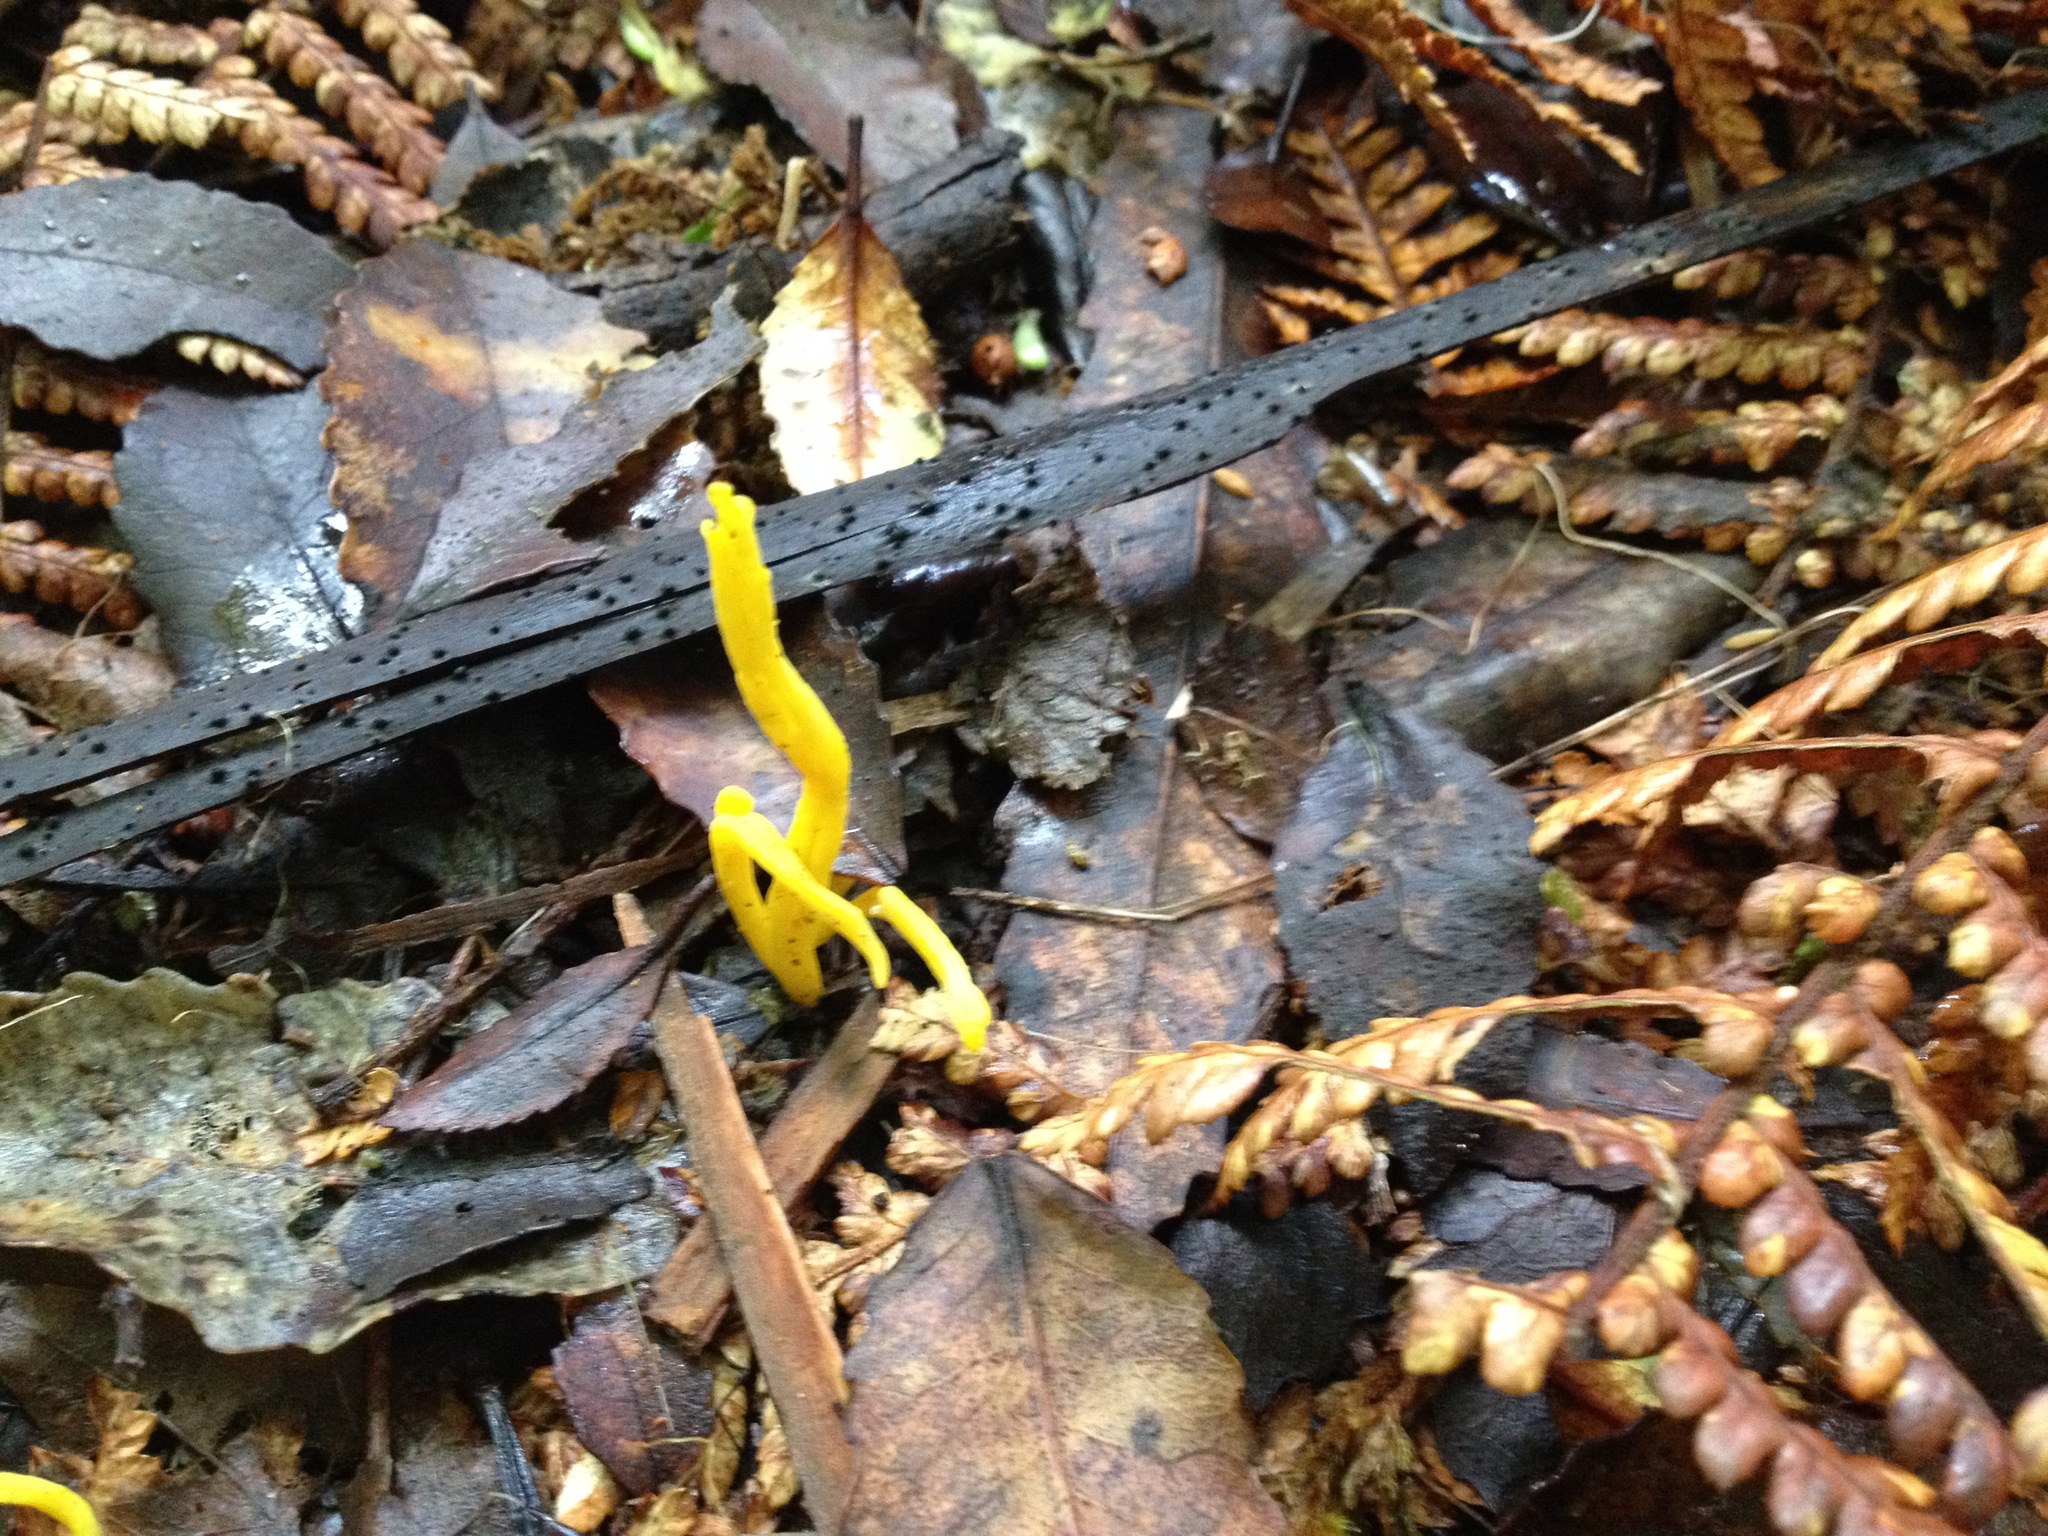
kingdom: Fungi
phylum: Basidiomycota
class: Agaricomycetes
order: Agaricales
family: Clavariaceae
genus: Clavulinopsis
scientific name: Clavulinopsis amoena
